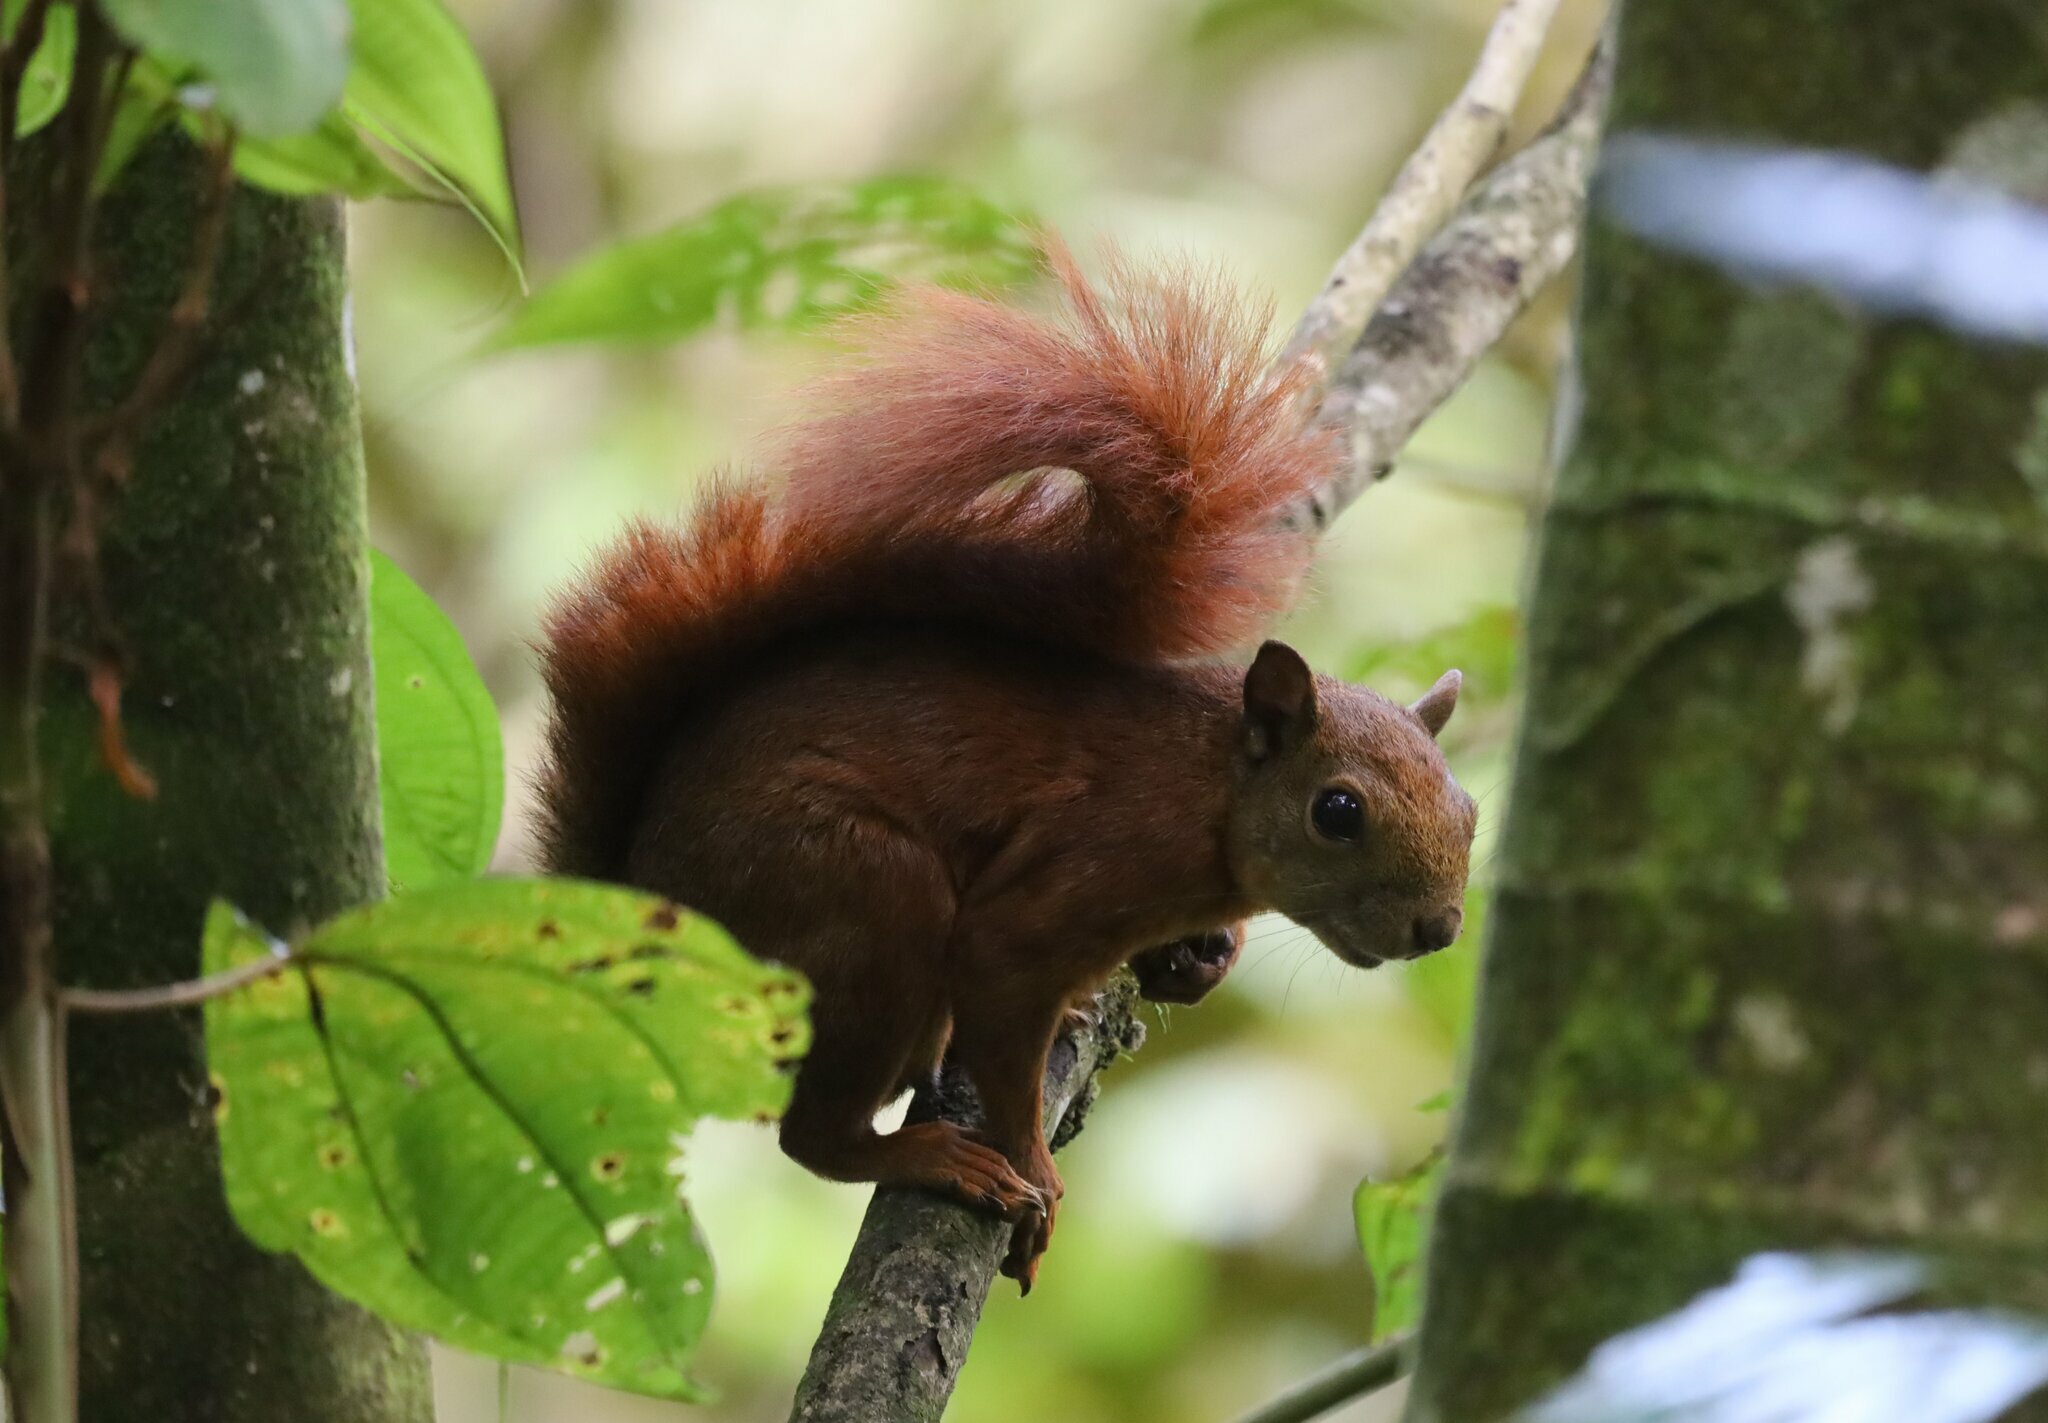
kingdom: Animalia
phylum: Chordata
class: Mammalia
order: Rodentia
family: Sciuridae
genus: Sciurus
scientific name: Sciurus granatensis
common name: Red-tailed squirrel
